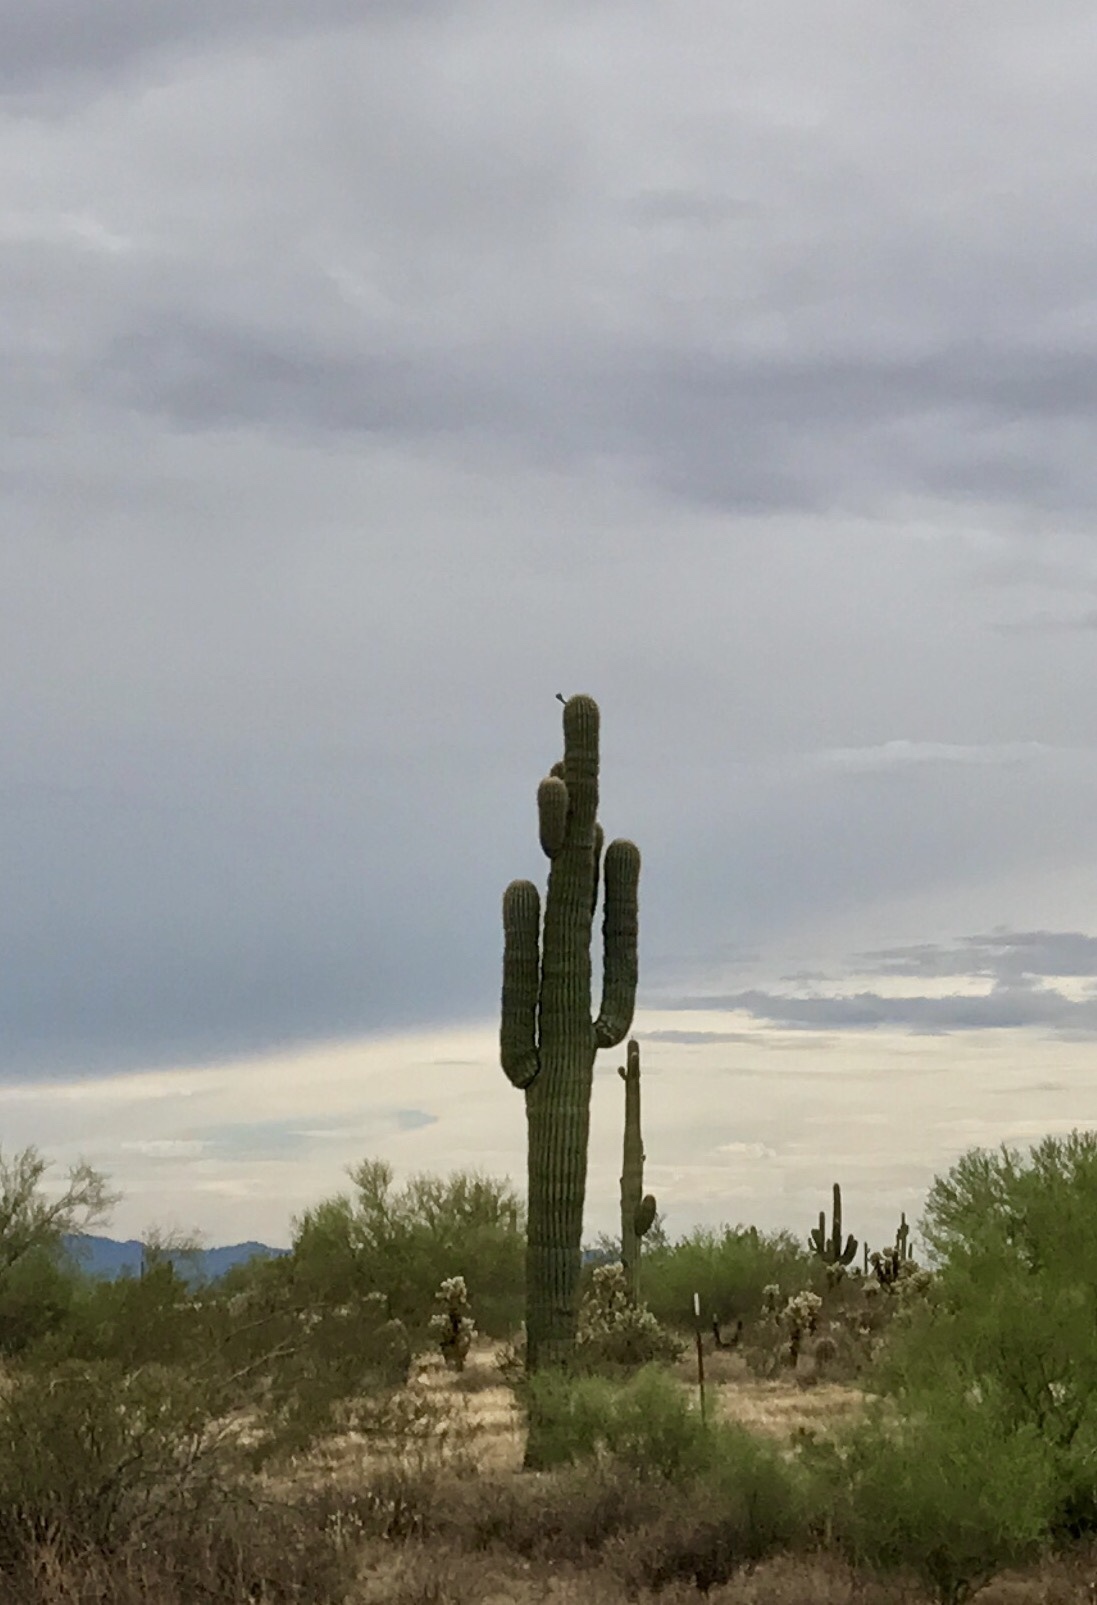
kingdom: Plantae
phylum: Tracheophyta
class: Magnoliopsida
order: Caryophyllales
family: Cactaceae
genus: Carnegiea
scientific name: Carnegiea gigantea
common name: Saguaro
